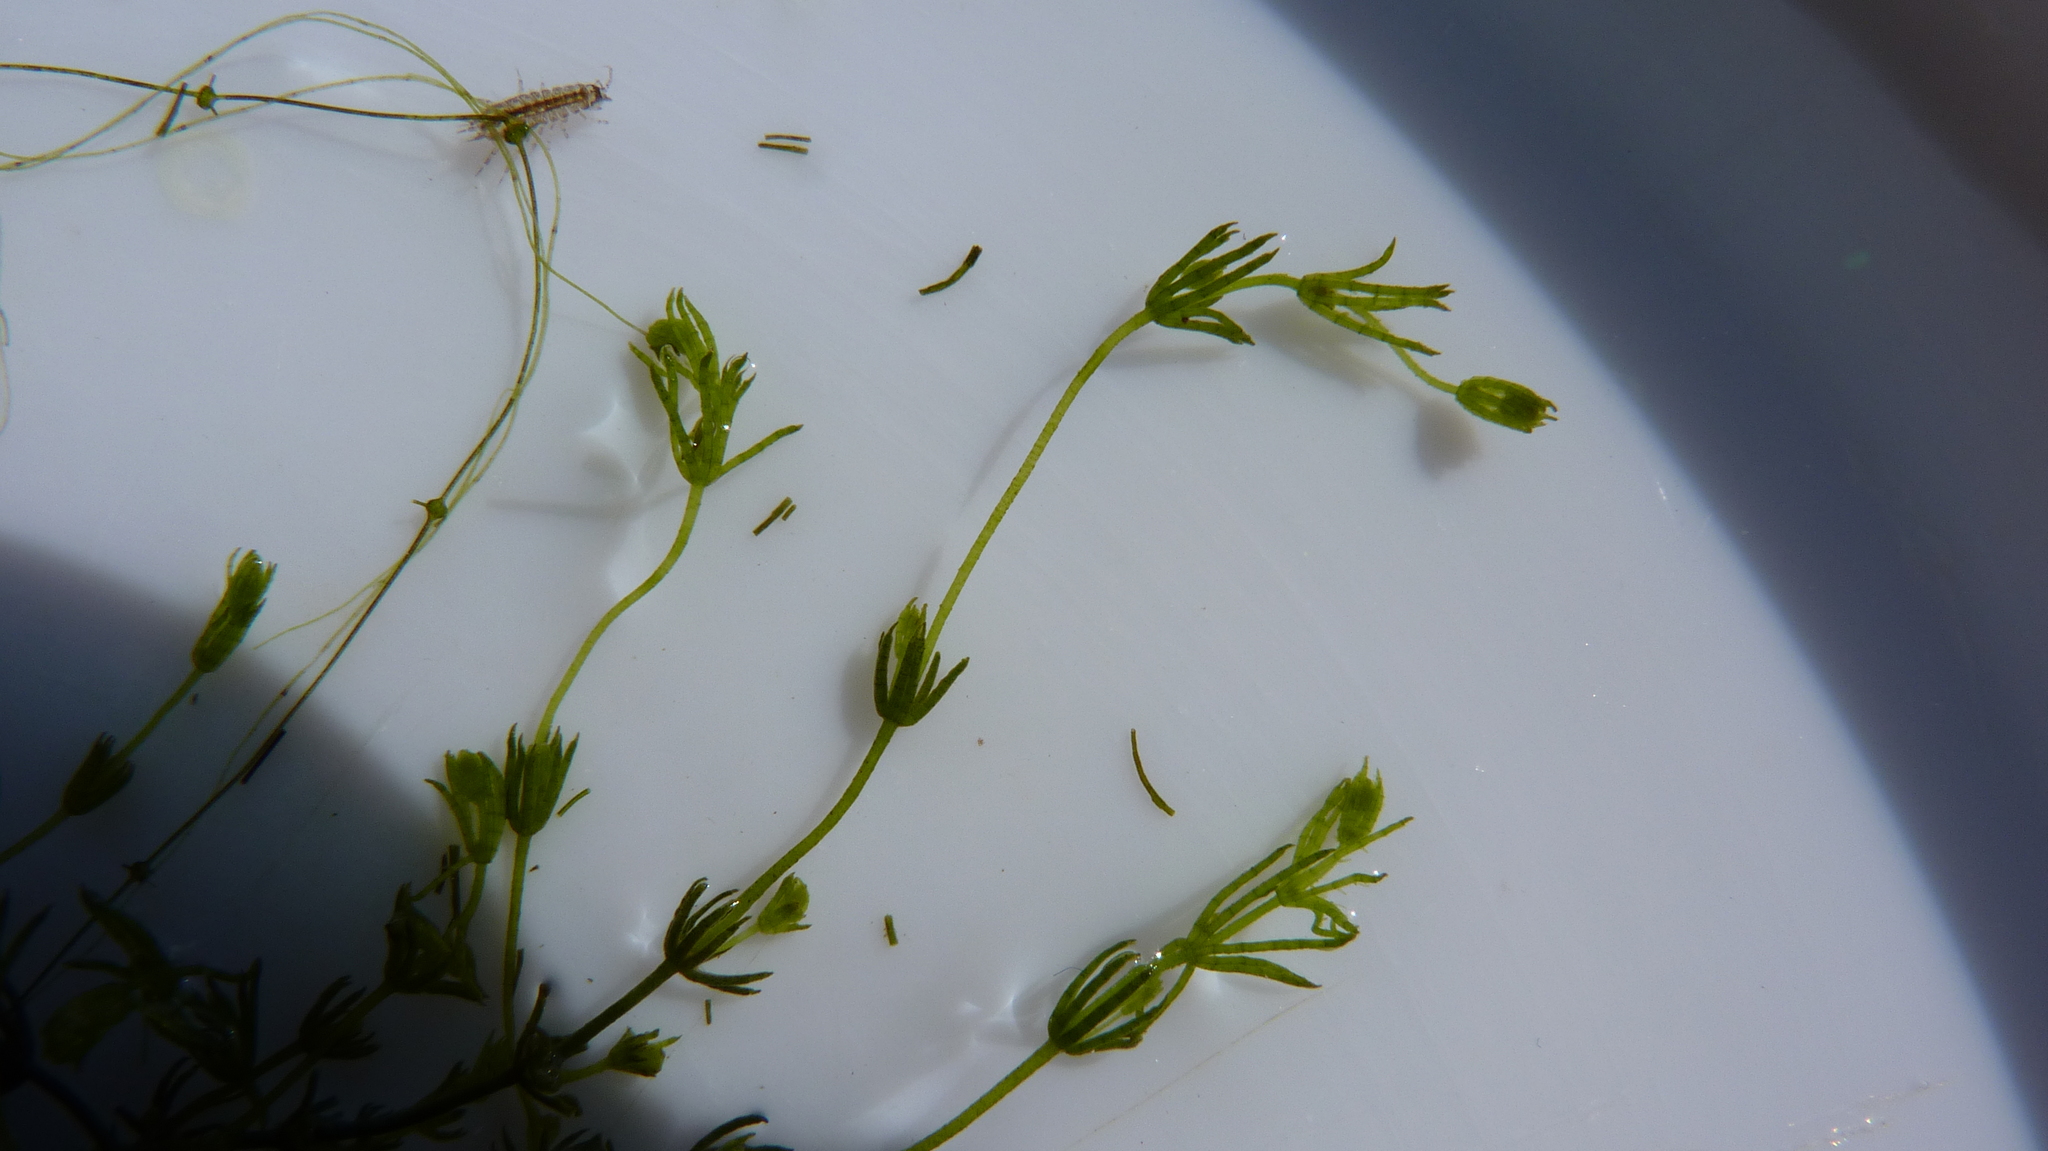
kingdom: Plantae
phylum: Charophyta
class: Charophyceae
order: Charales
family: Characeae
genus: Chara
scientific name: Chara
